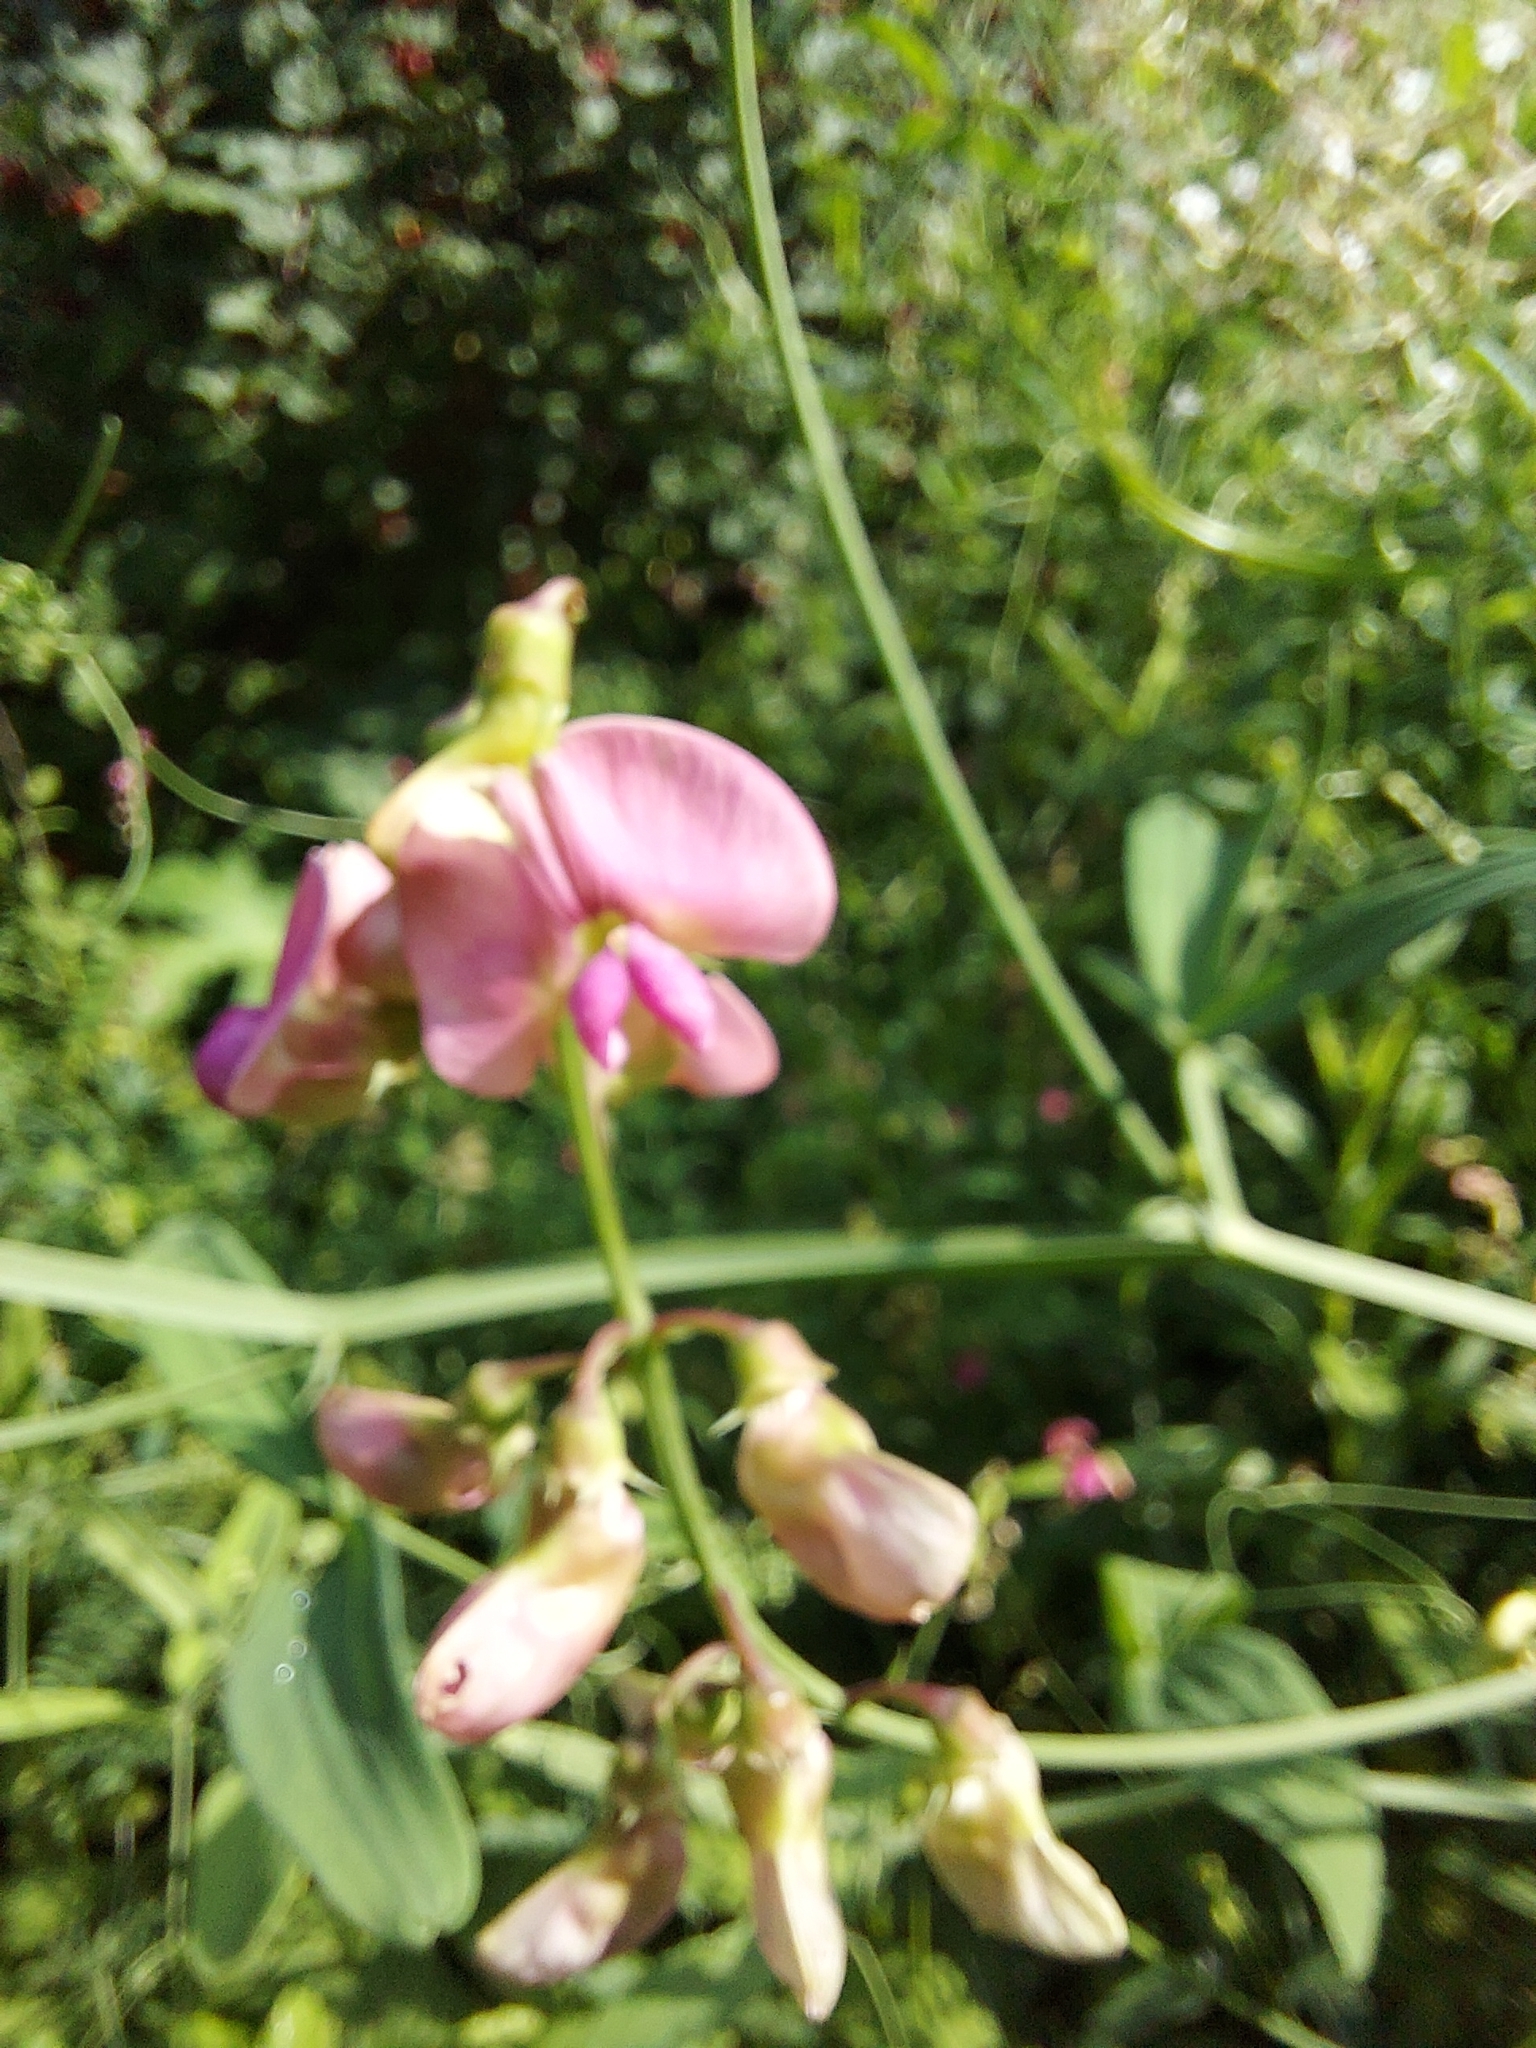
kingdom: Plantae
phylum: Tracheophyta
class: Magnoliopsida
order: Fabales
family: Fabaceae
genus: Lathyrus
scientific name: Lathyrus sylvestris
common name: Flat pea
